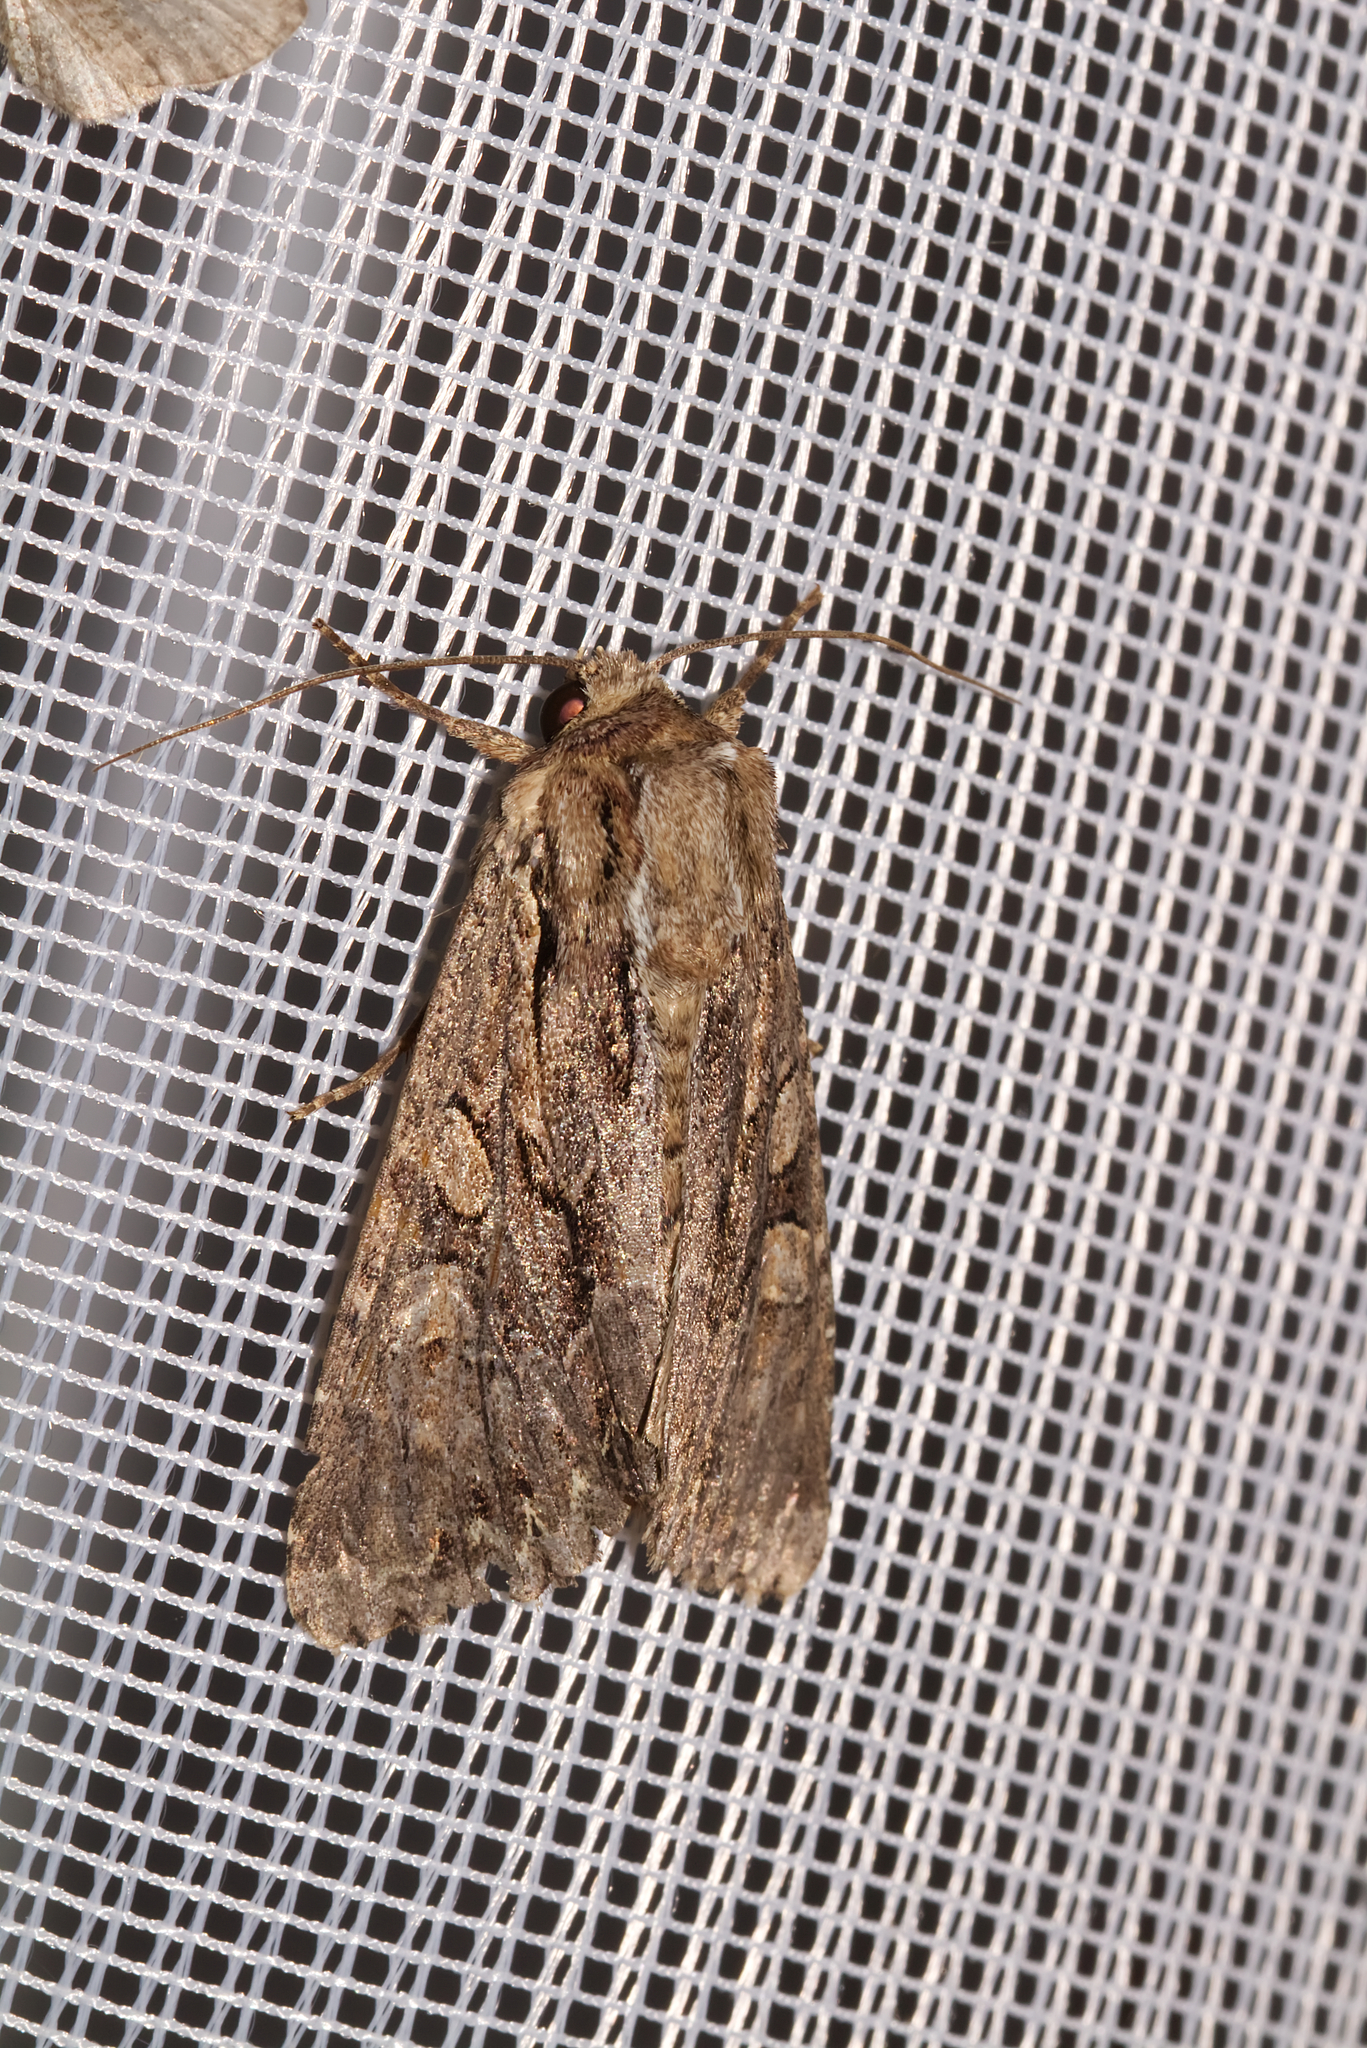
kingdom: Animalia
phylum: Arthropoda
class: Insecta
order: Lepidoptera
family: Noctuidae
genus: Apamea
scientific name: Apamea monoglypha
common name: Dark arches
